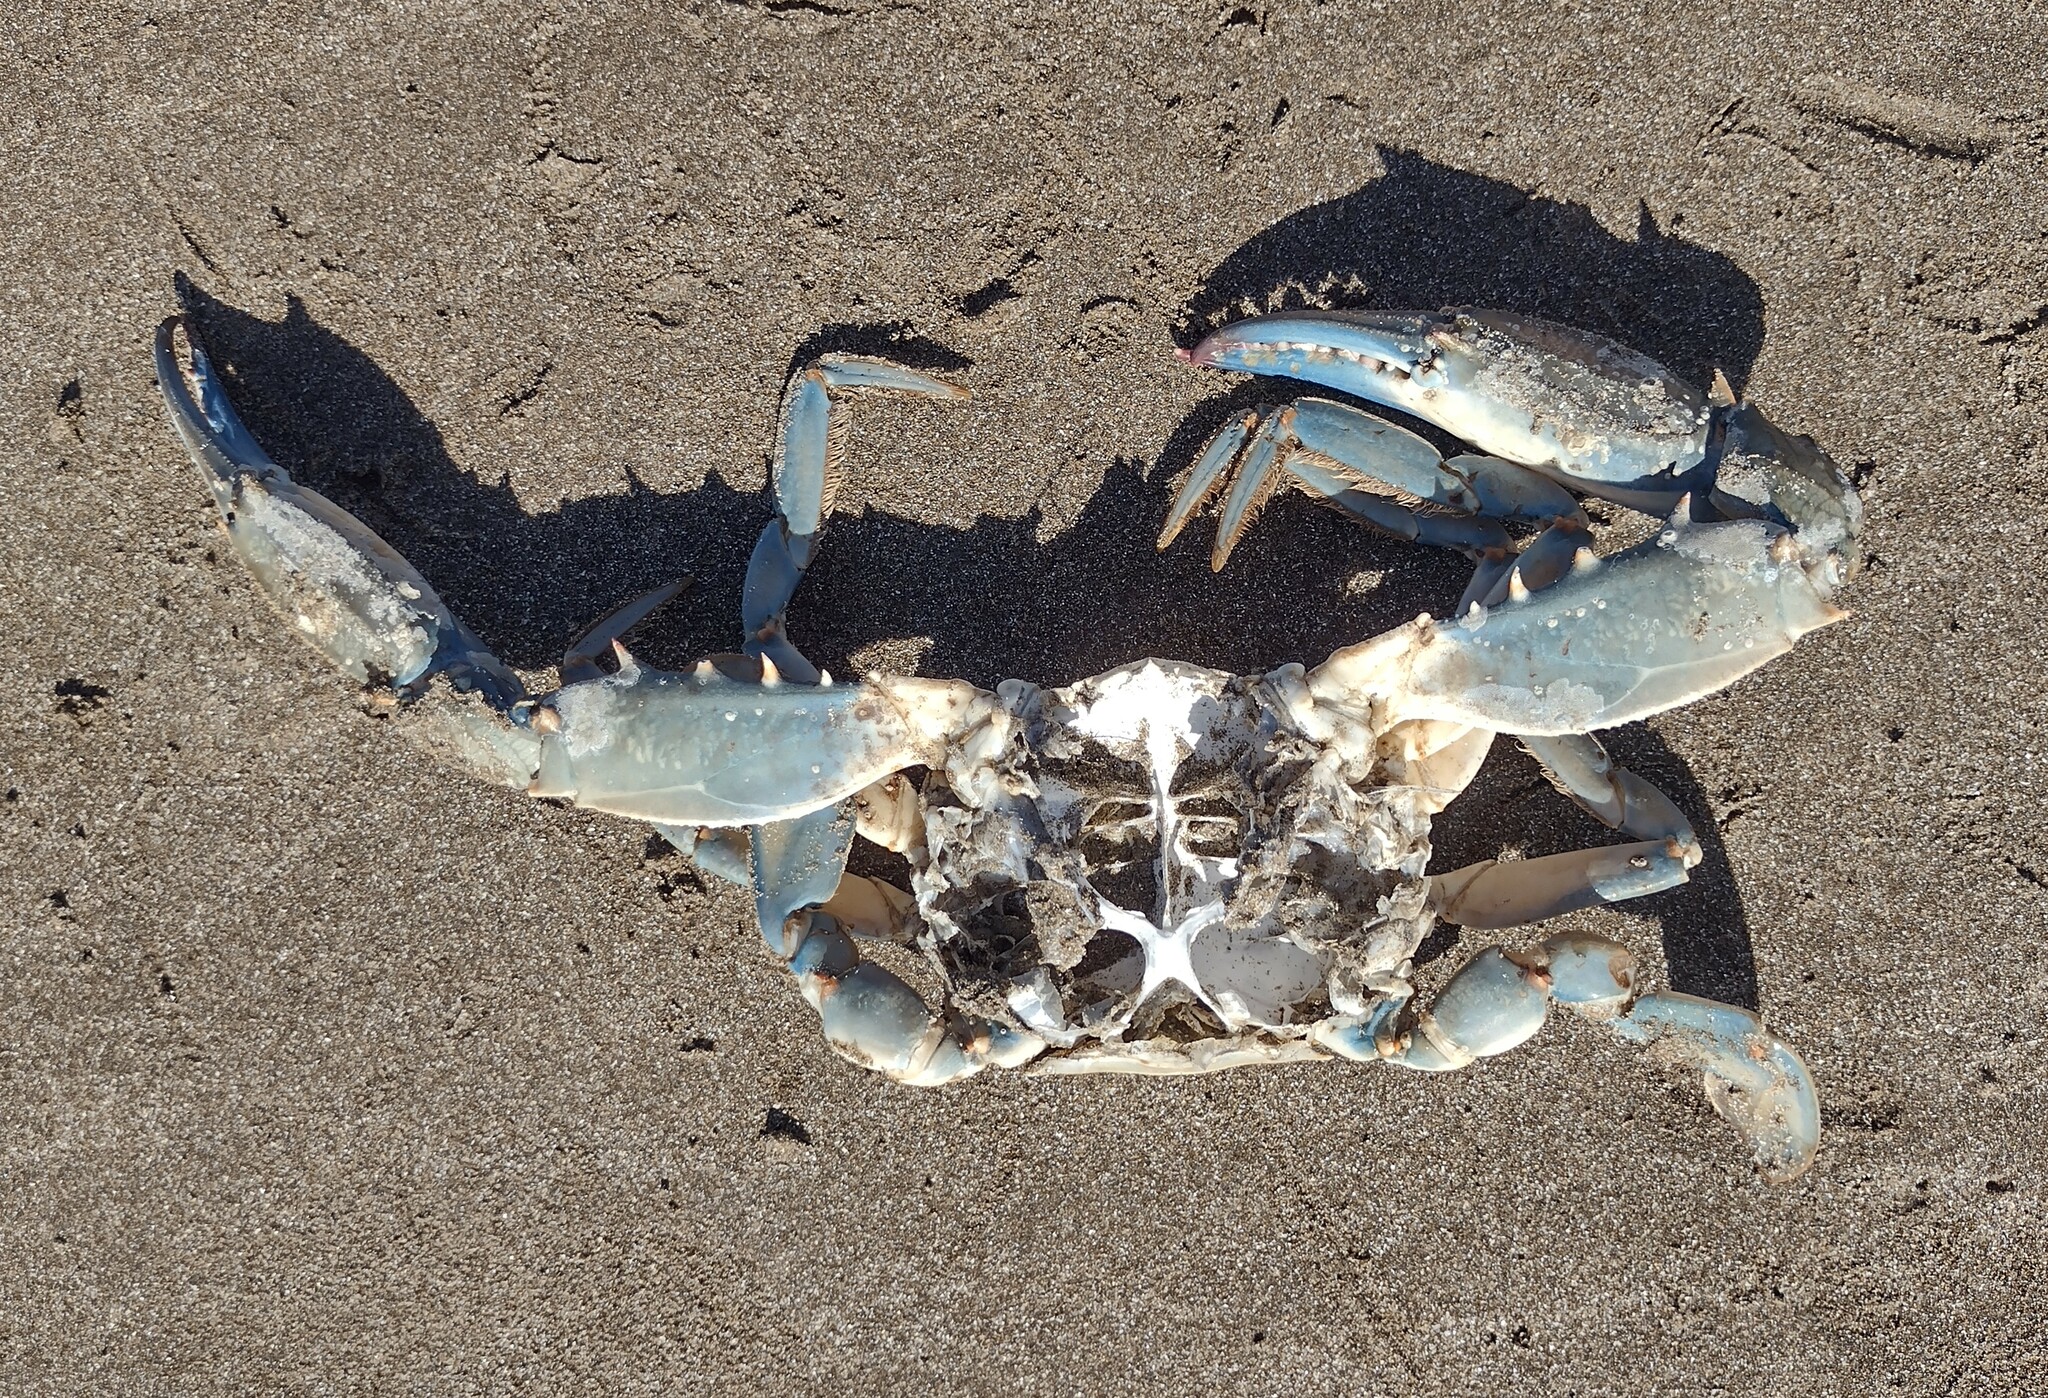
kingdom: Animalia
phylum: Arthropoda
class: Malacostraca
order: Decapoda
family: Portunidae
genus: Callinectes
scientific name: Callinectes sapidus
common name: Blue crab
